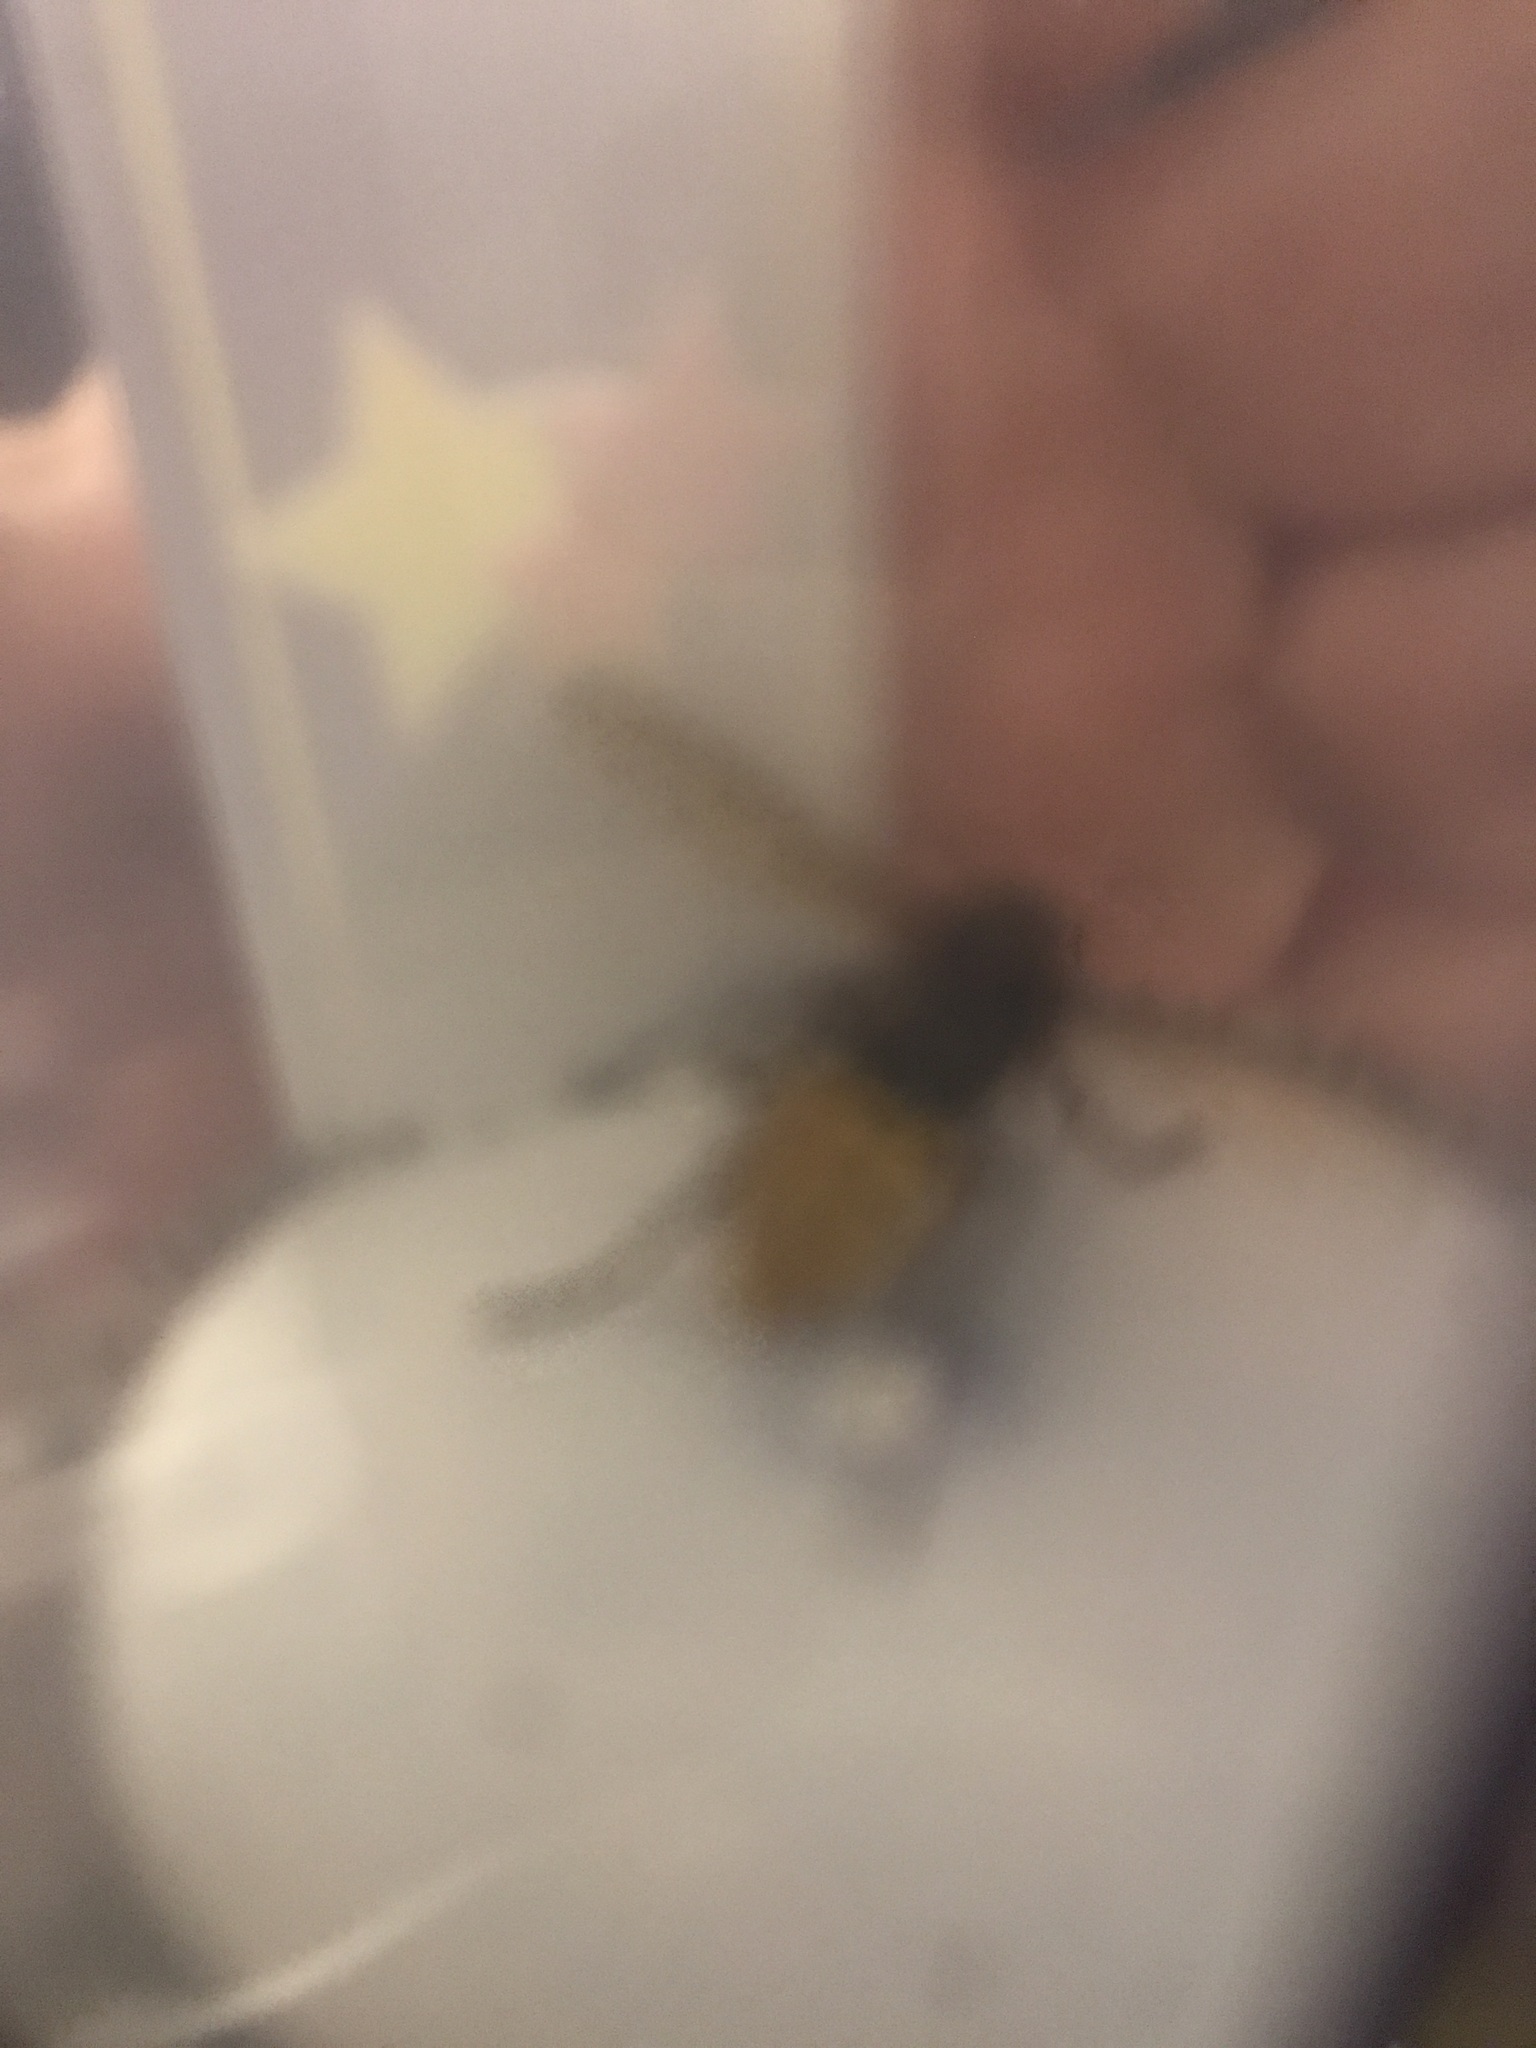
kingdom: Animalia
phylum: Arthropoda
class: Insecta
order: Hymenoptera
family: Vespidae
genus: Vespa
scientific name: Vespa crabro
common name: Hornet
